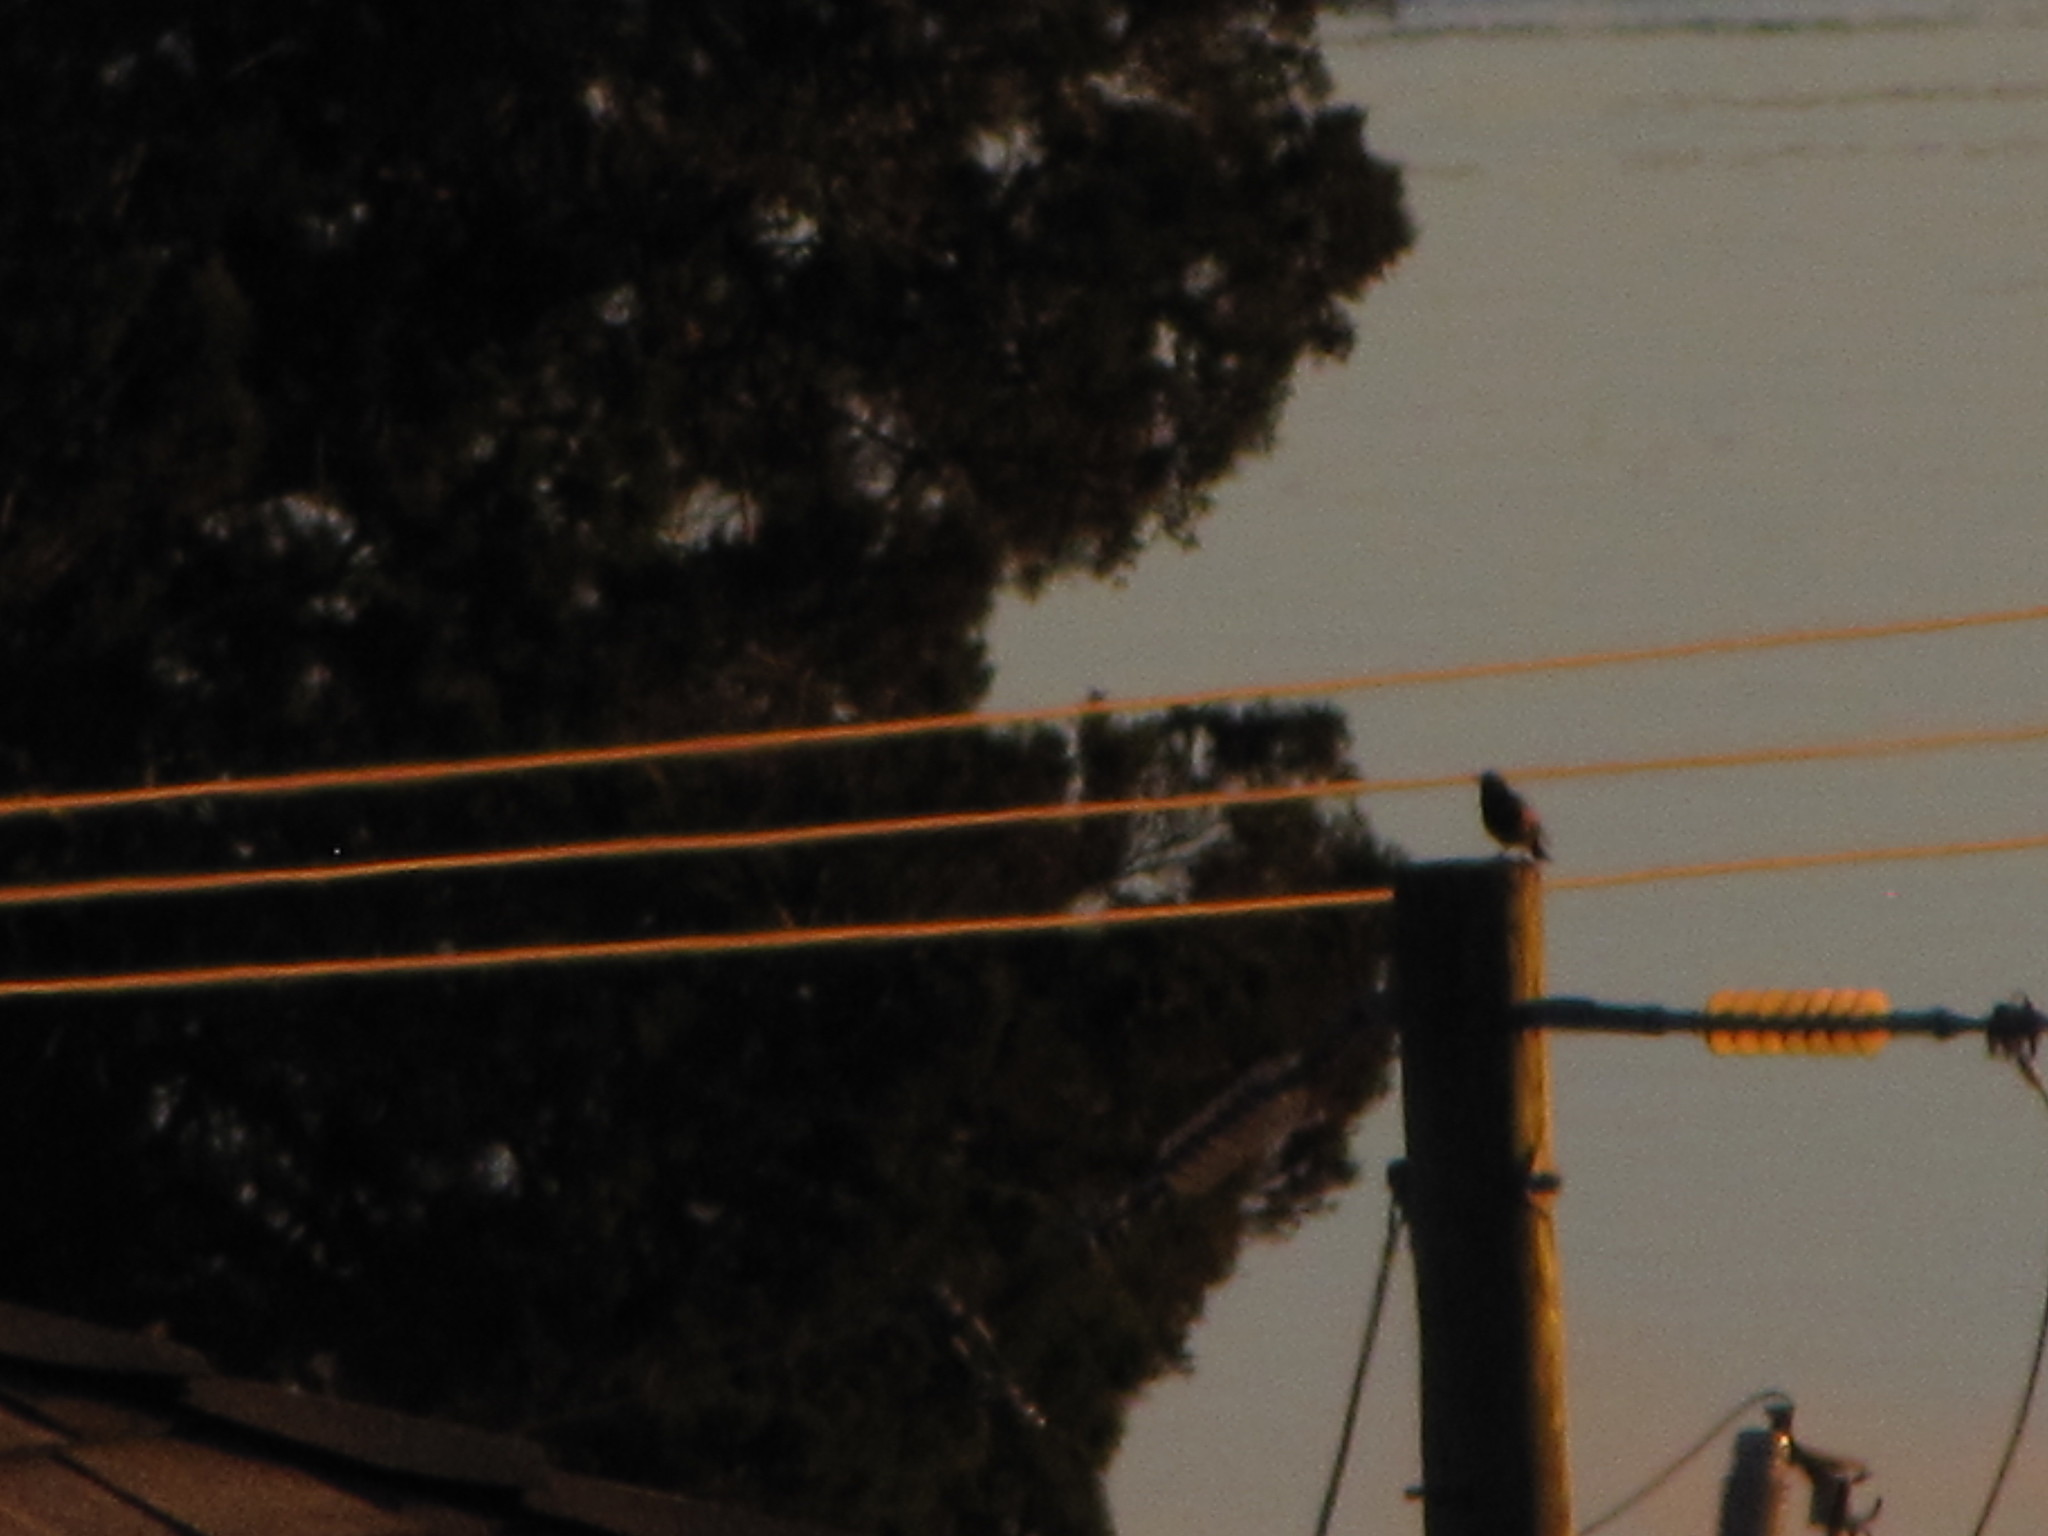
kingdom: Animalia
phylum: Chordata
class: Aves
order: Passeriformes
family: Sturnidae
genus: Sturnus
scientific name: Sturnus vulgaris
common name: Common starling
